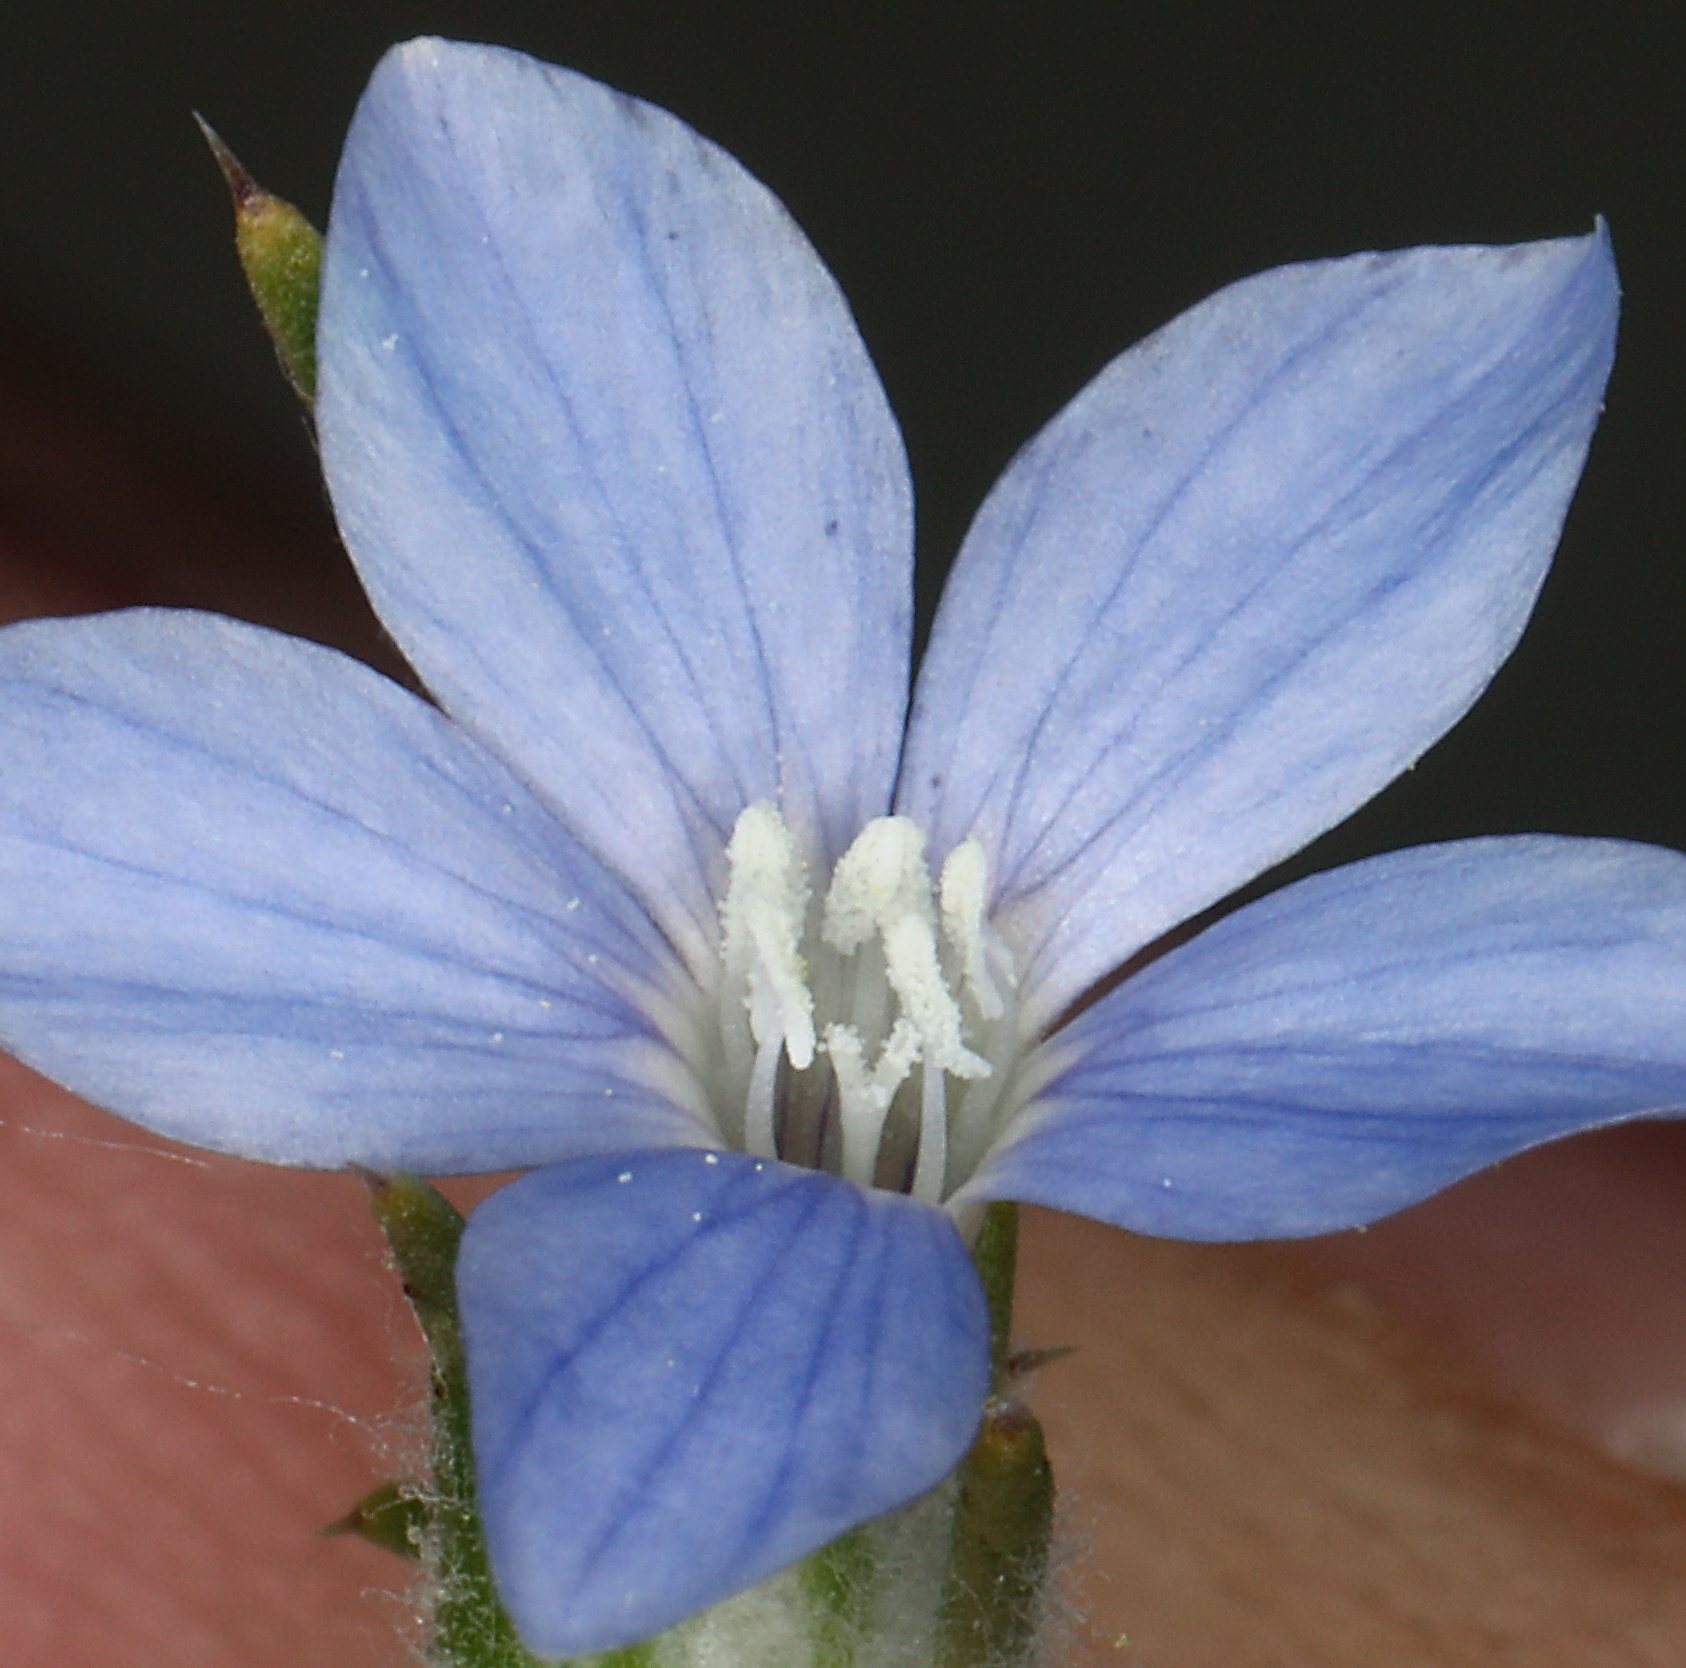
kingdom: Plantae
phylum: Tracheophyta
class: Magnoliopsida
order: Ericales
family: Polemoniaceae
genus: Eriastrum
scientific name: Eriastrum wilcoxii
